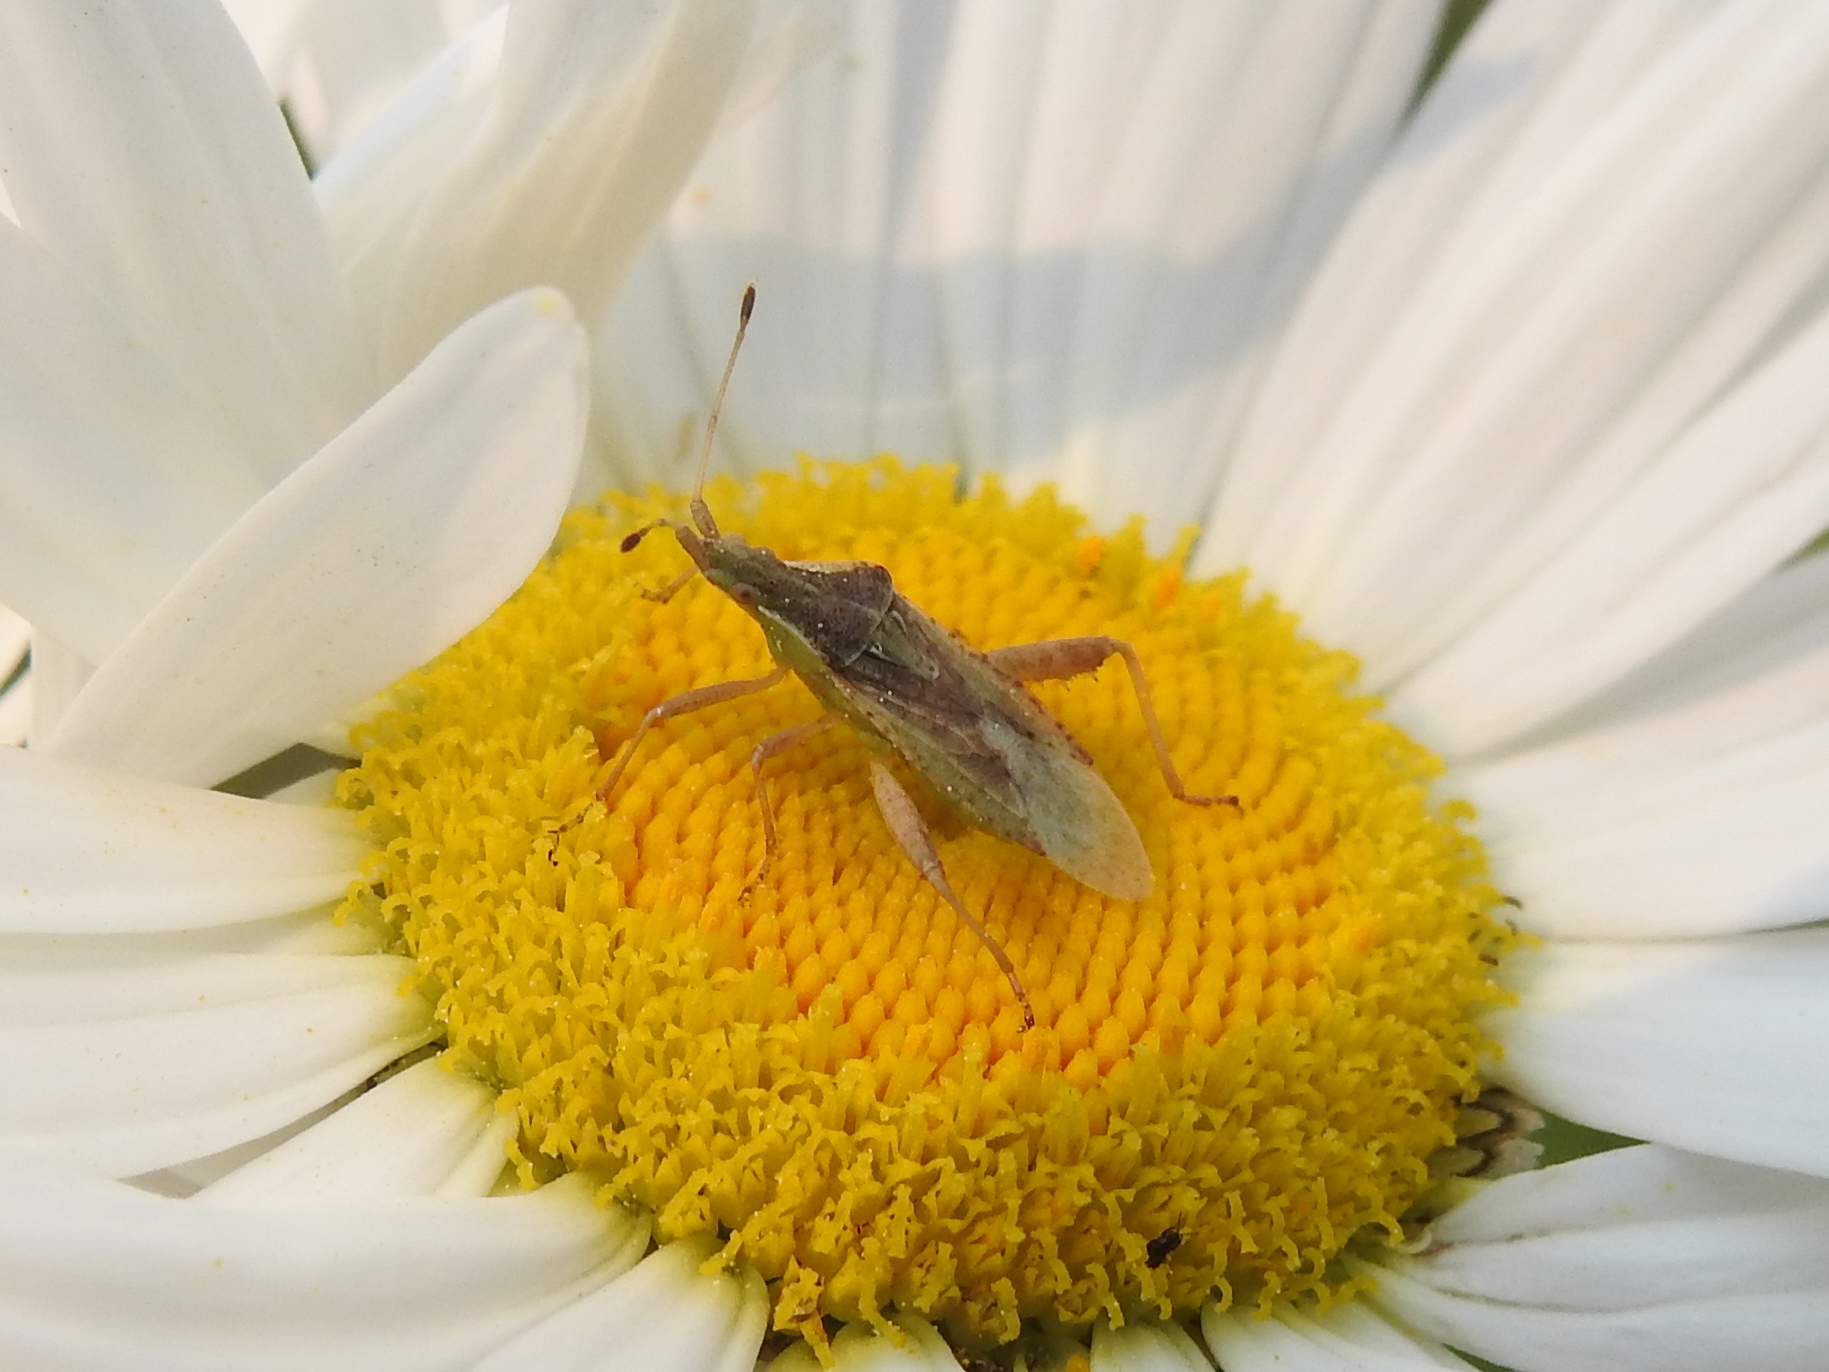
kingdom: Animalia
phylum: Arthropoda
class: Insecta
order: Hemiptera
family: Rhopalidae
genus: Harmostes
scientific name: Harmostes reflexulus
